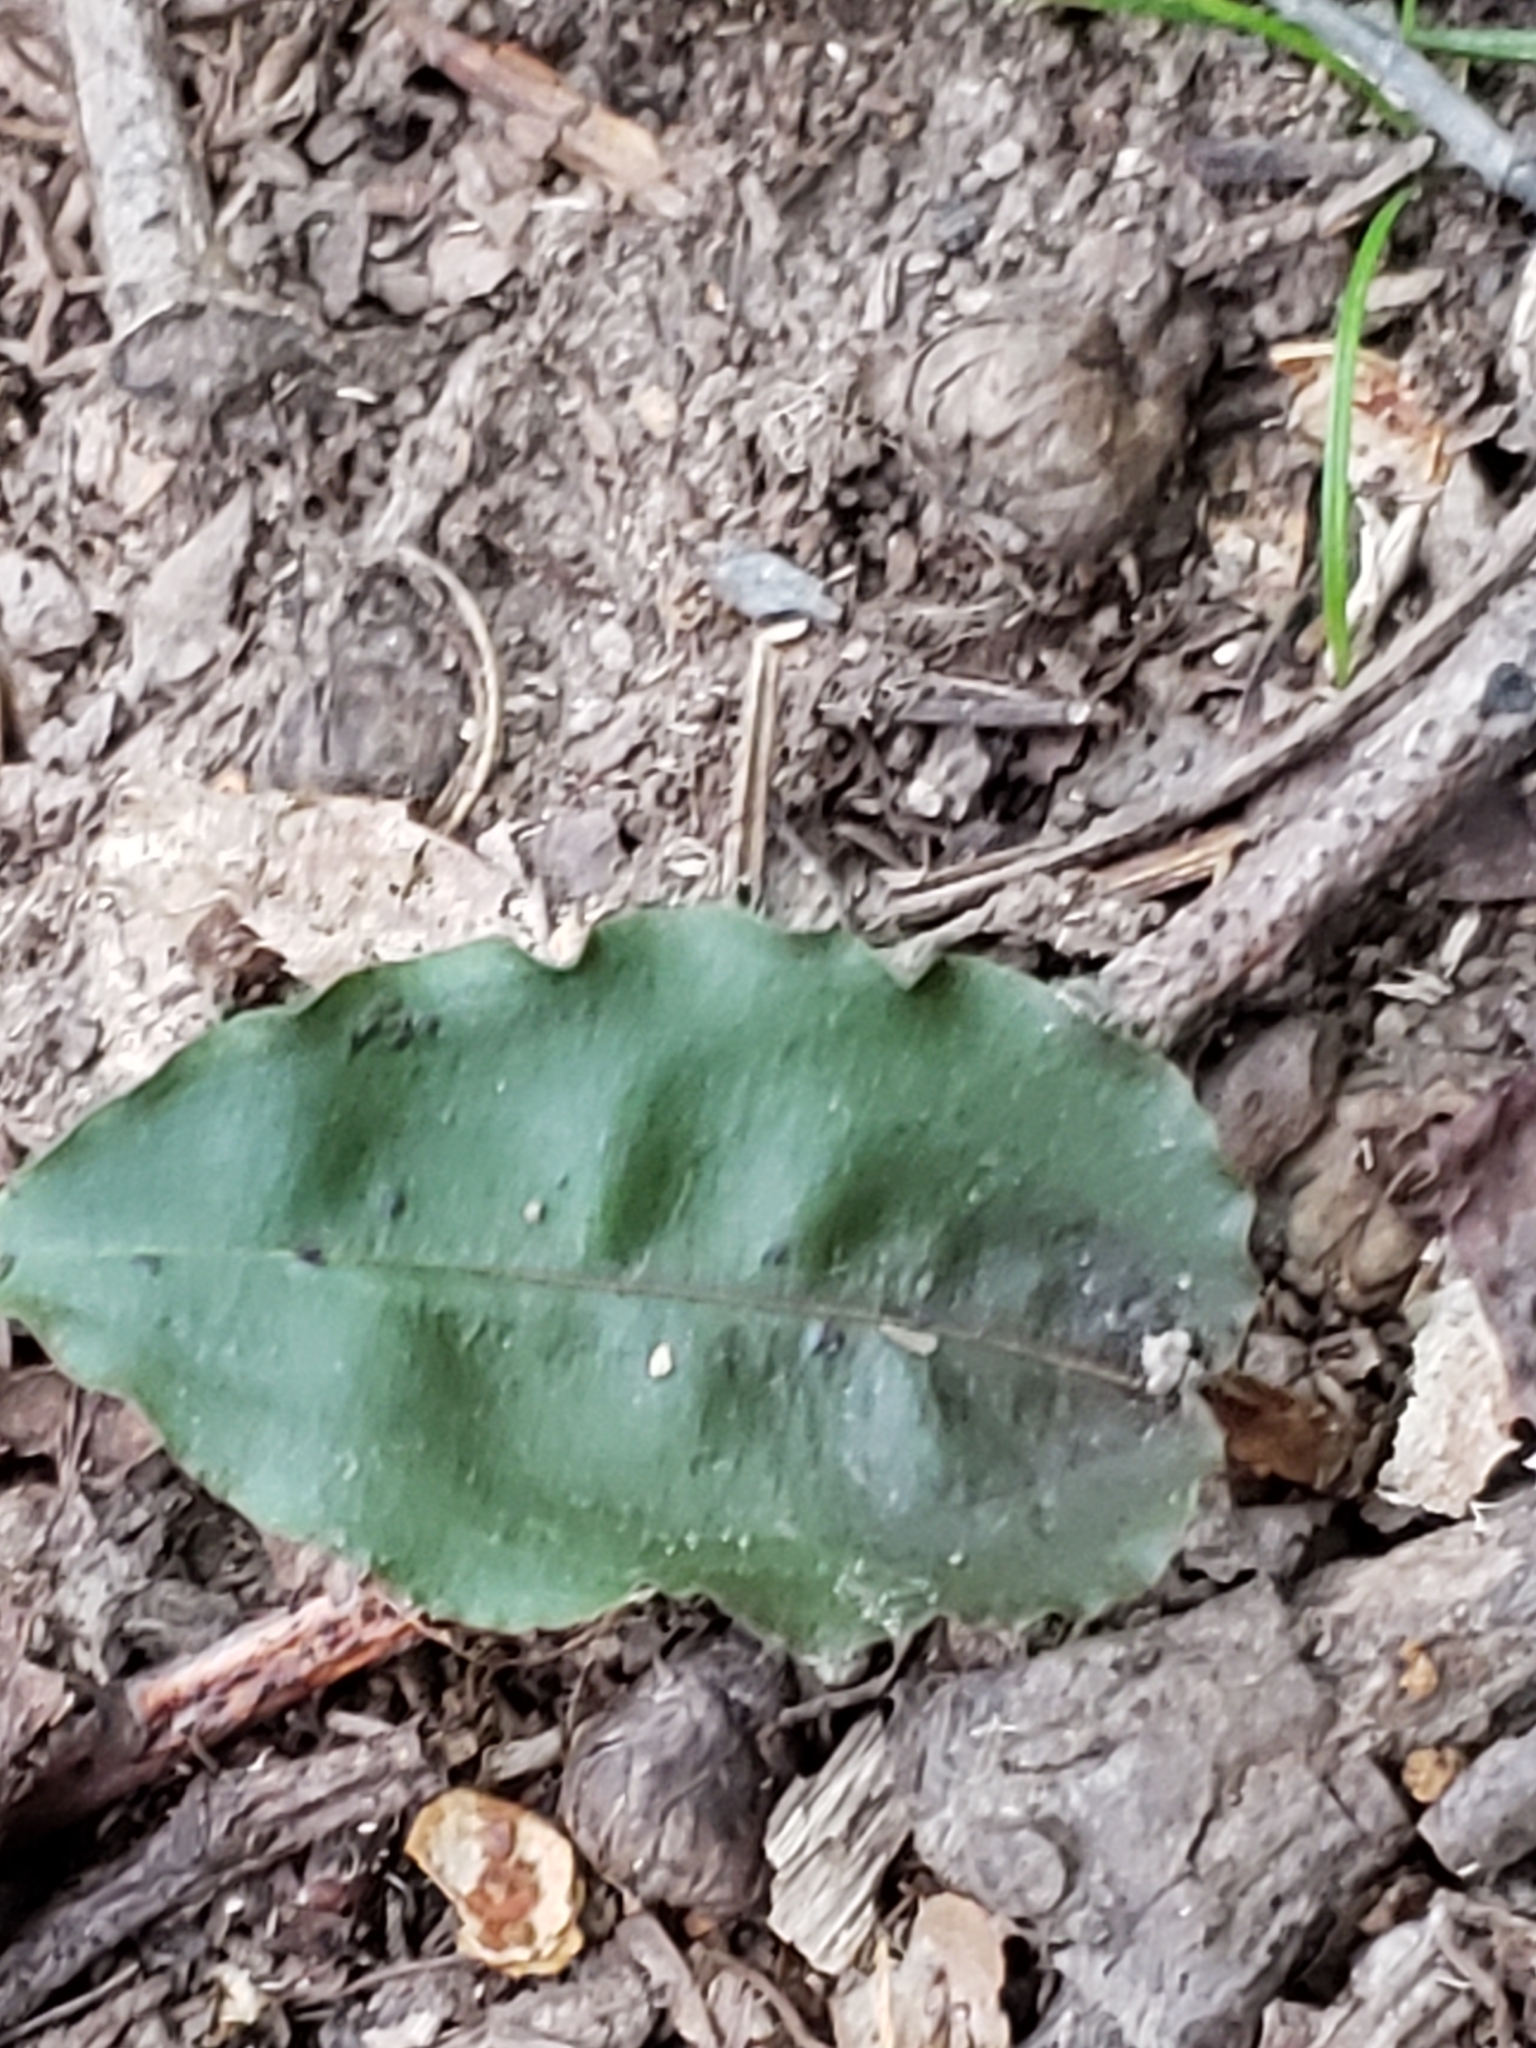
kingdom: Plantae
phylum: Tracheophyta
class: Liliopsida
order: Asparagales
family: Orchidaceae
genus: Tipularia
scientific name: Tipularia discolor
